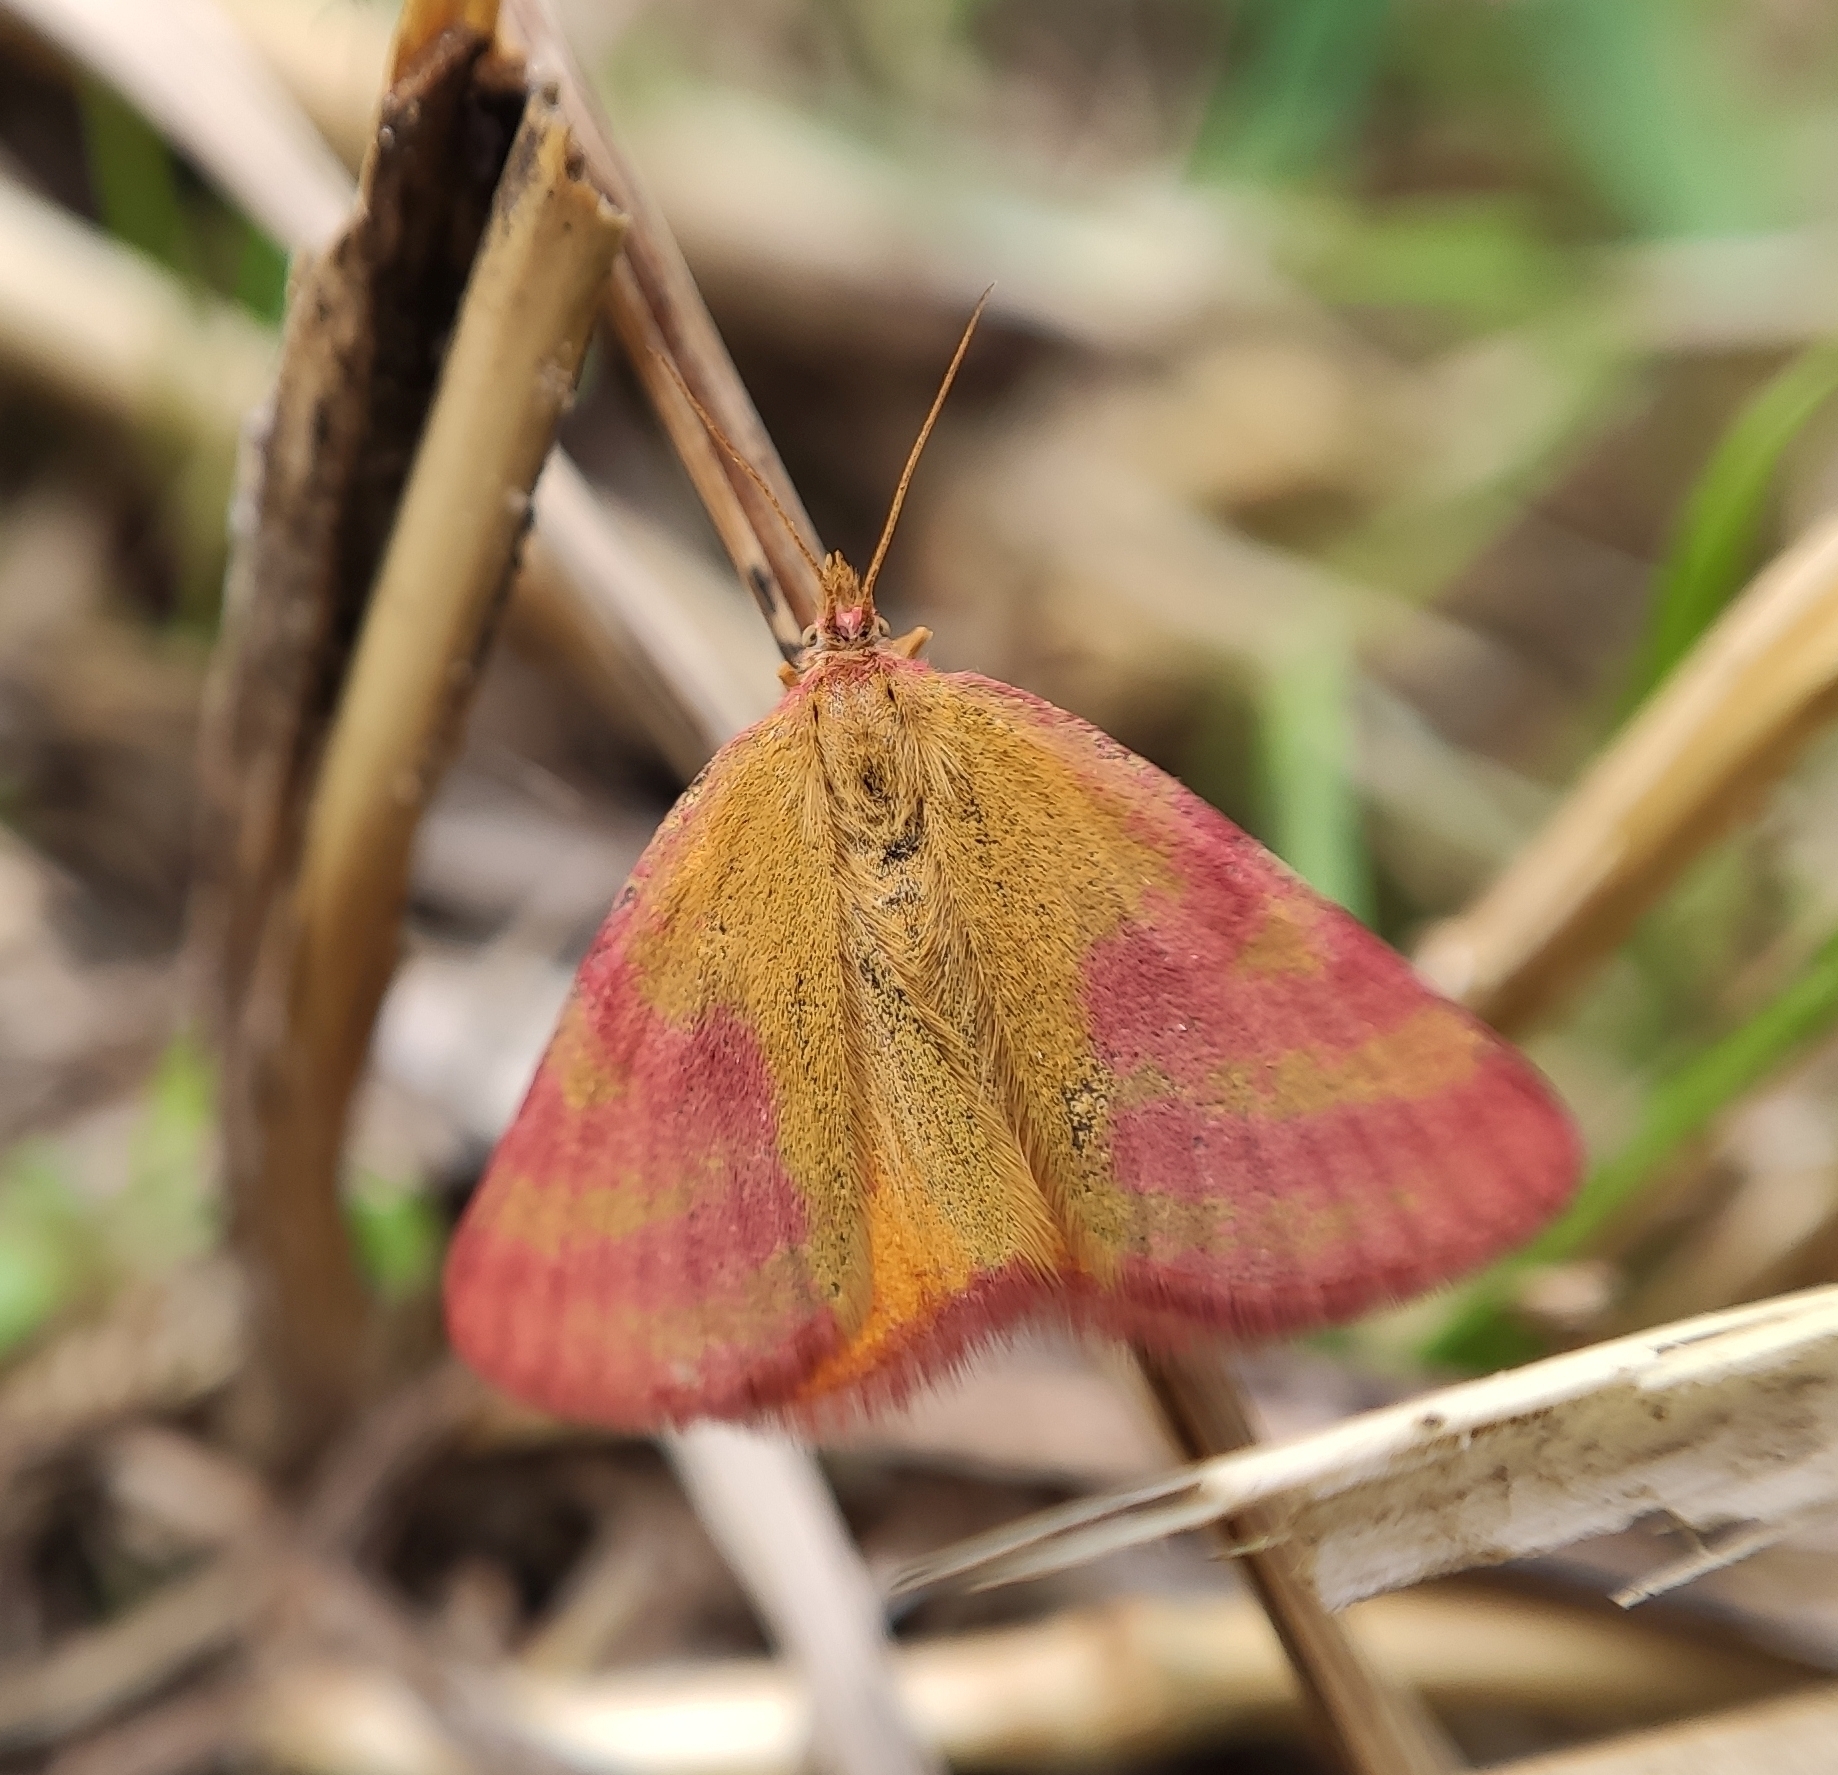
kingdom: Animalia
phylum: Arthropoda
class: Insecta
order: Lepidoptera
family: Geometridae
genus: Lythria
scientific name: Lythria purpuraria
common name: Purple-barred yellow
